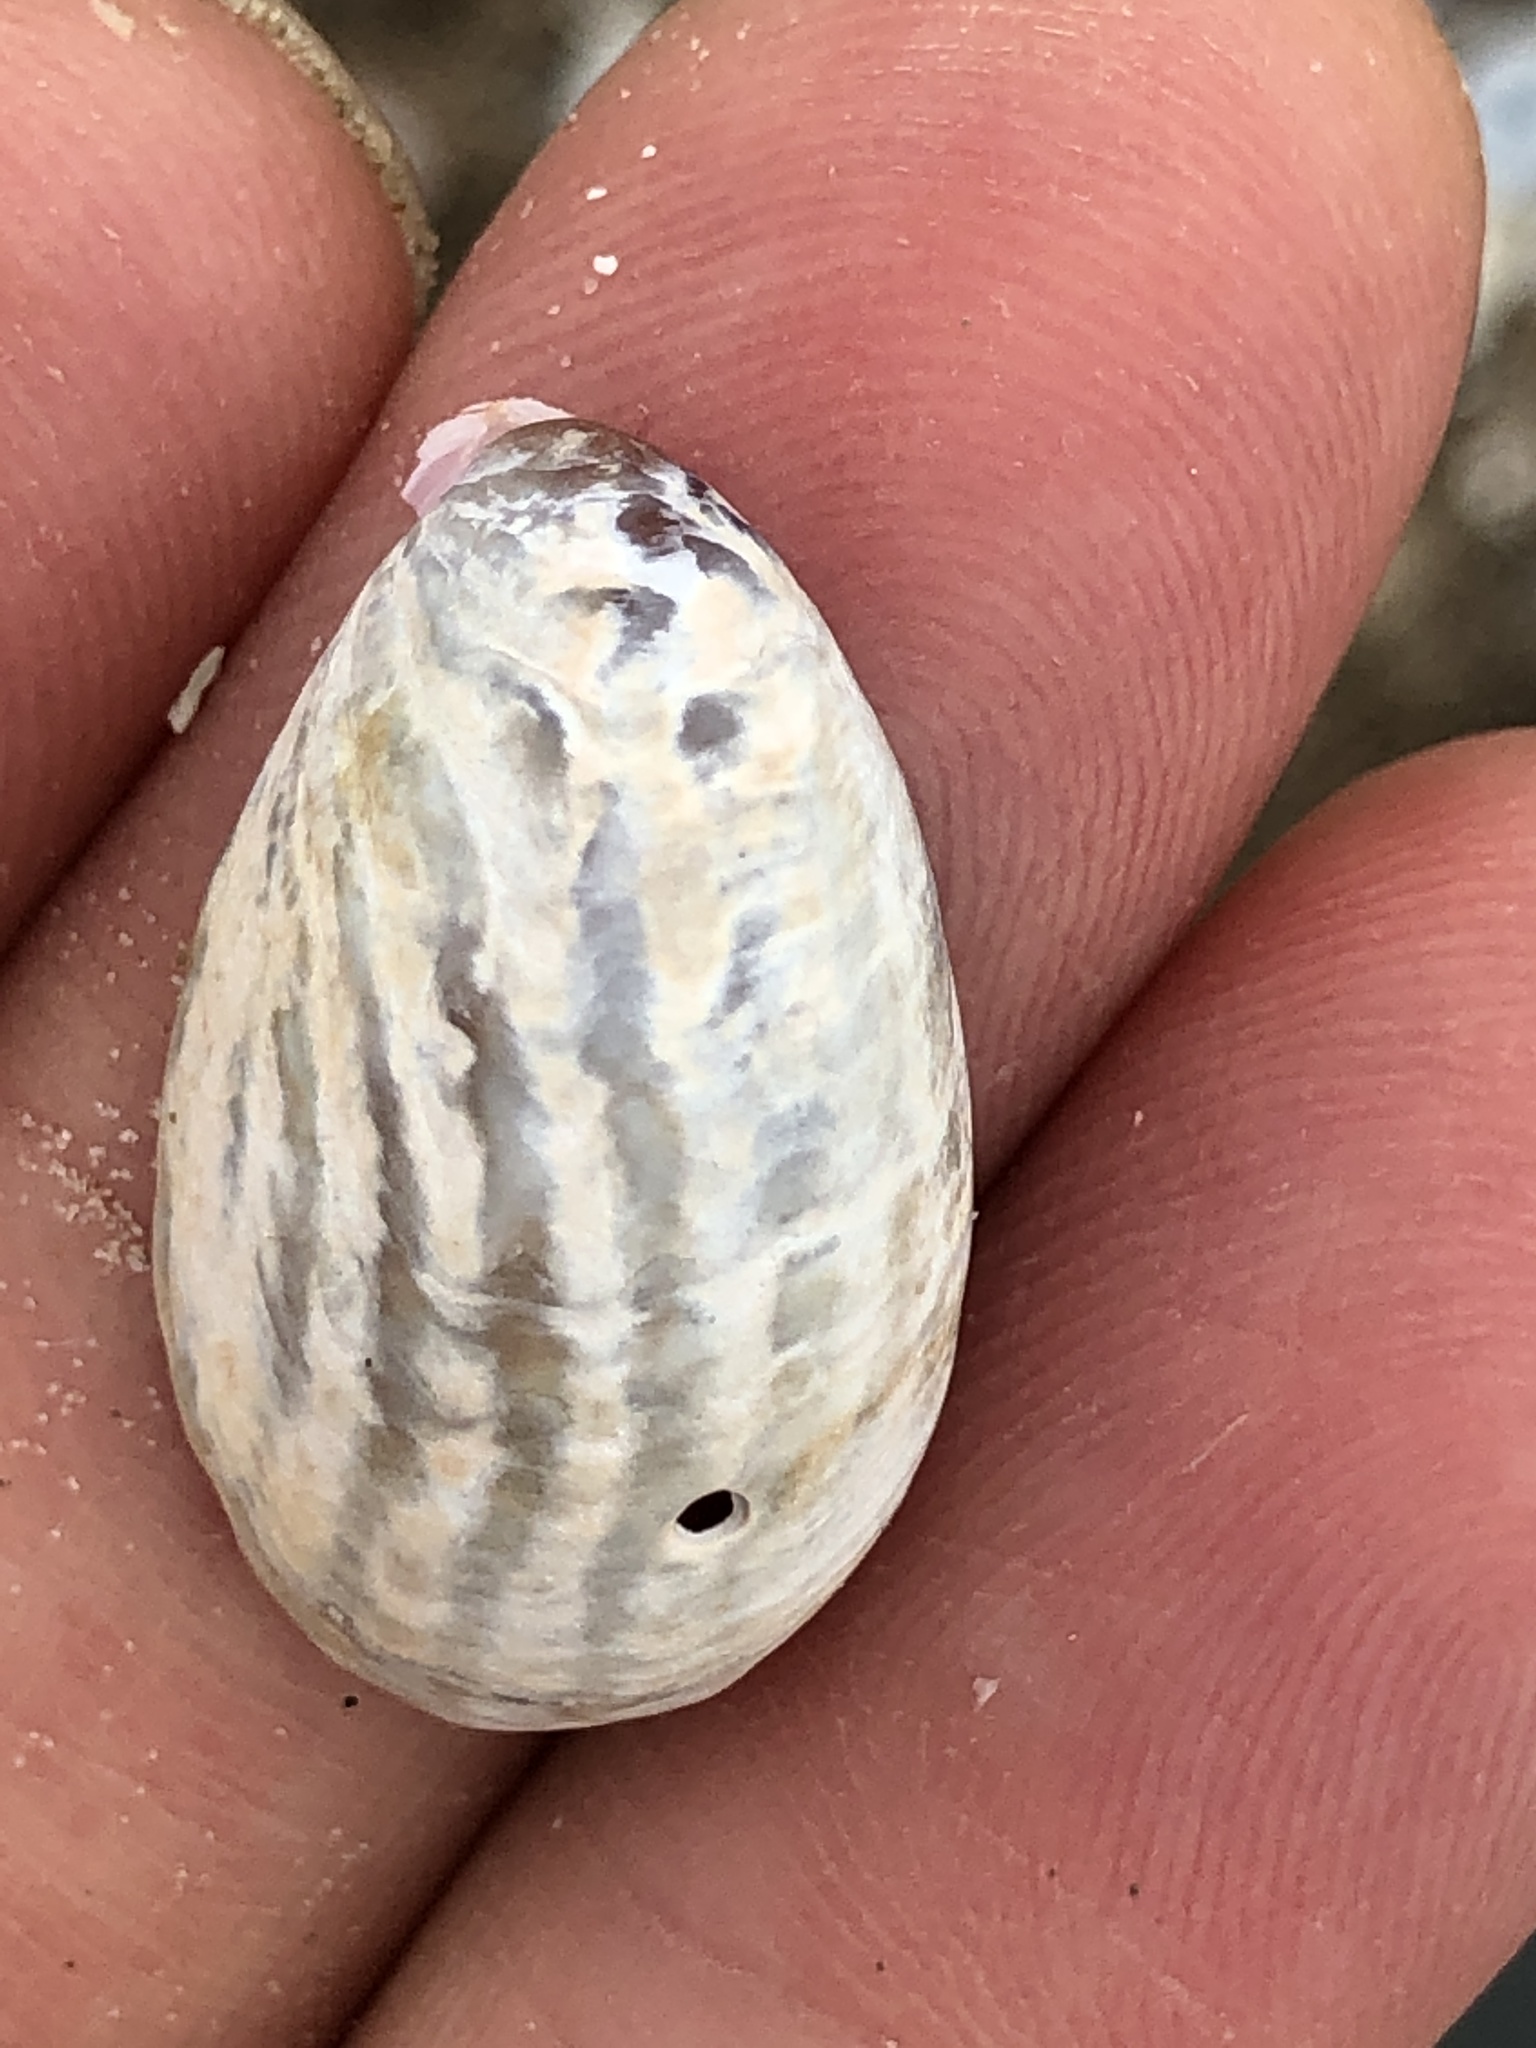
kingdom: Animalia
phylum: Mollusca
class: Gastropoda
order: Littorinimorpha
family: Calyptraeidae
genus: Crepidula
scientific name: Crepidula fornicata
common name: Slipper limpet
